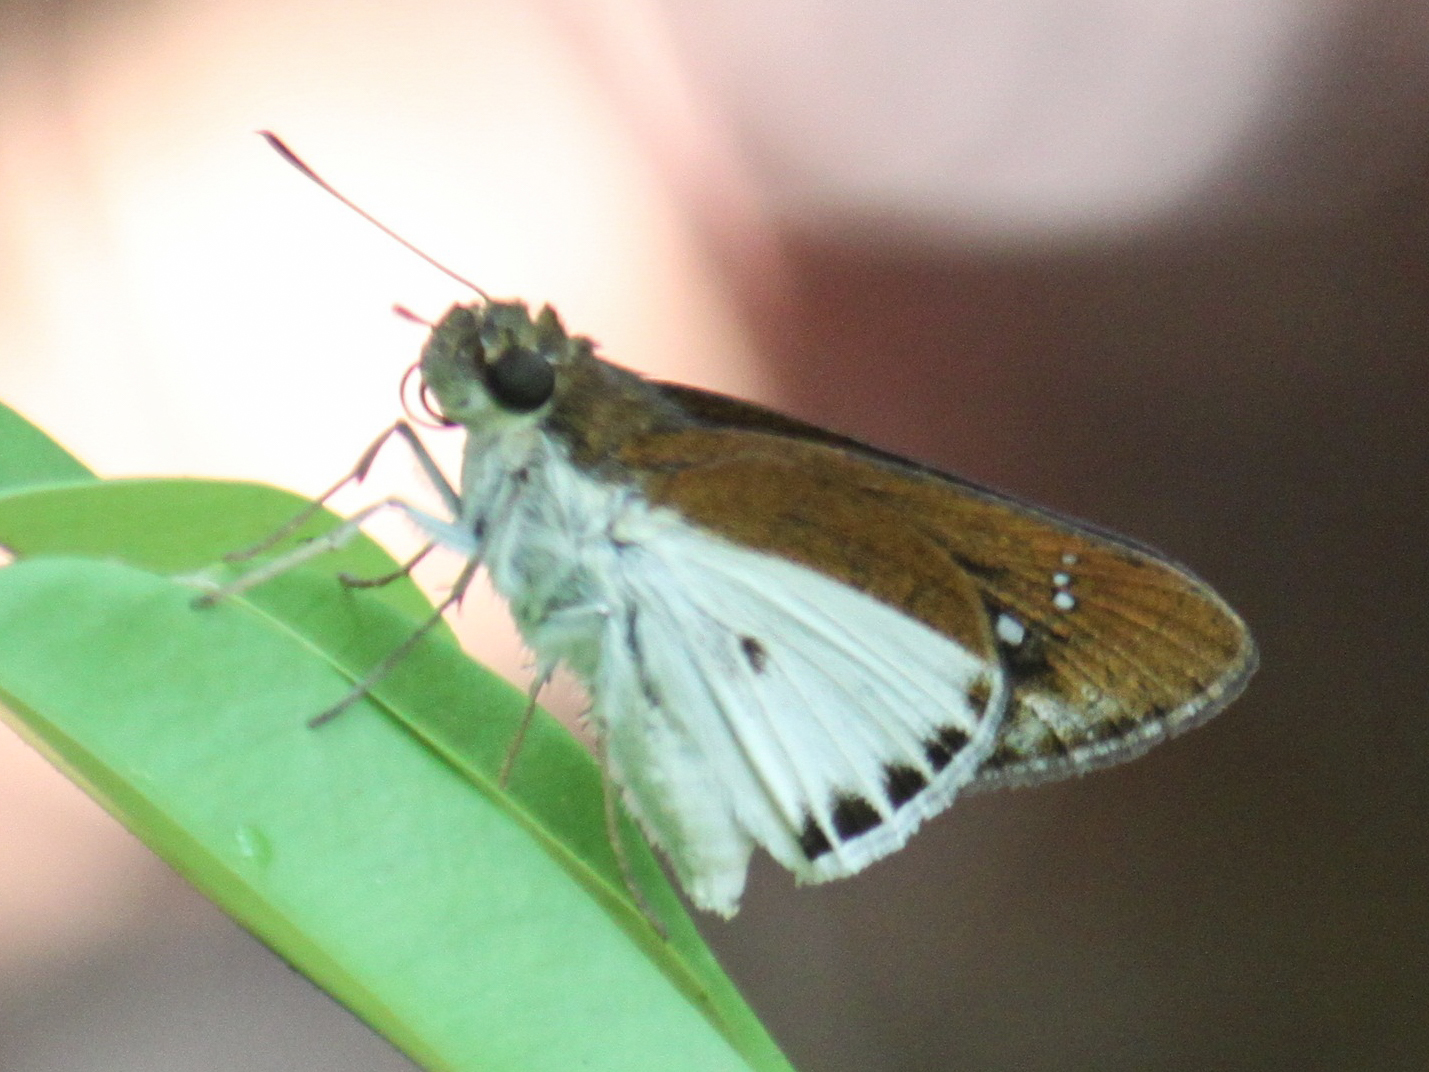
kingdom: Animalia
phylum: Arthropoda
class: Insecta
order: Lepidoptera
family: Hesperiidae
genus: Iton
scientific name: Iton semamora
